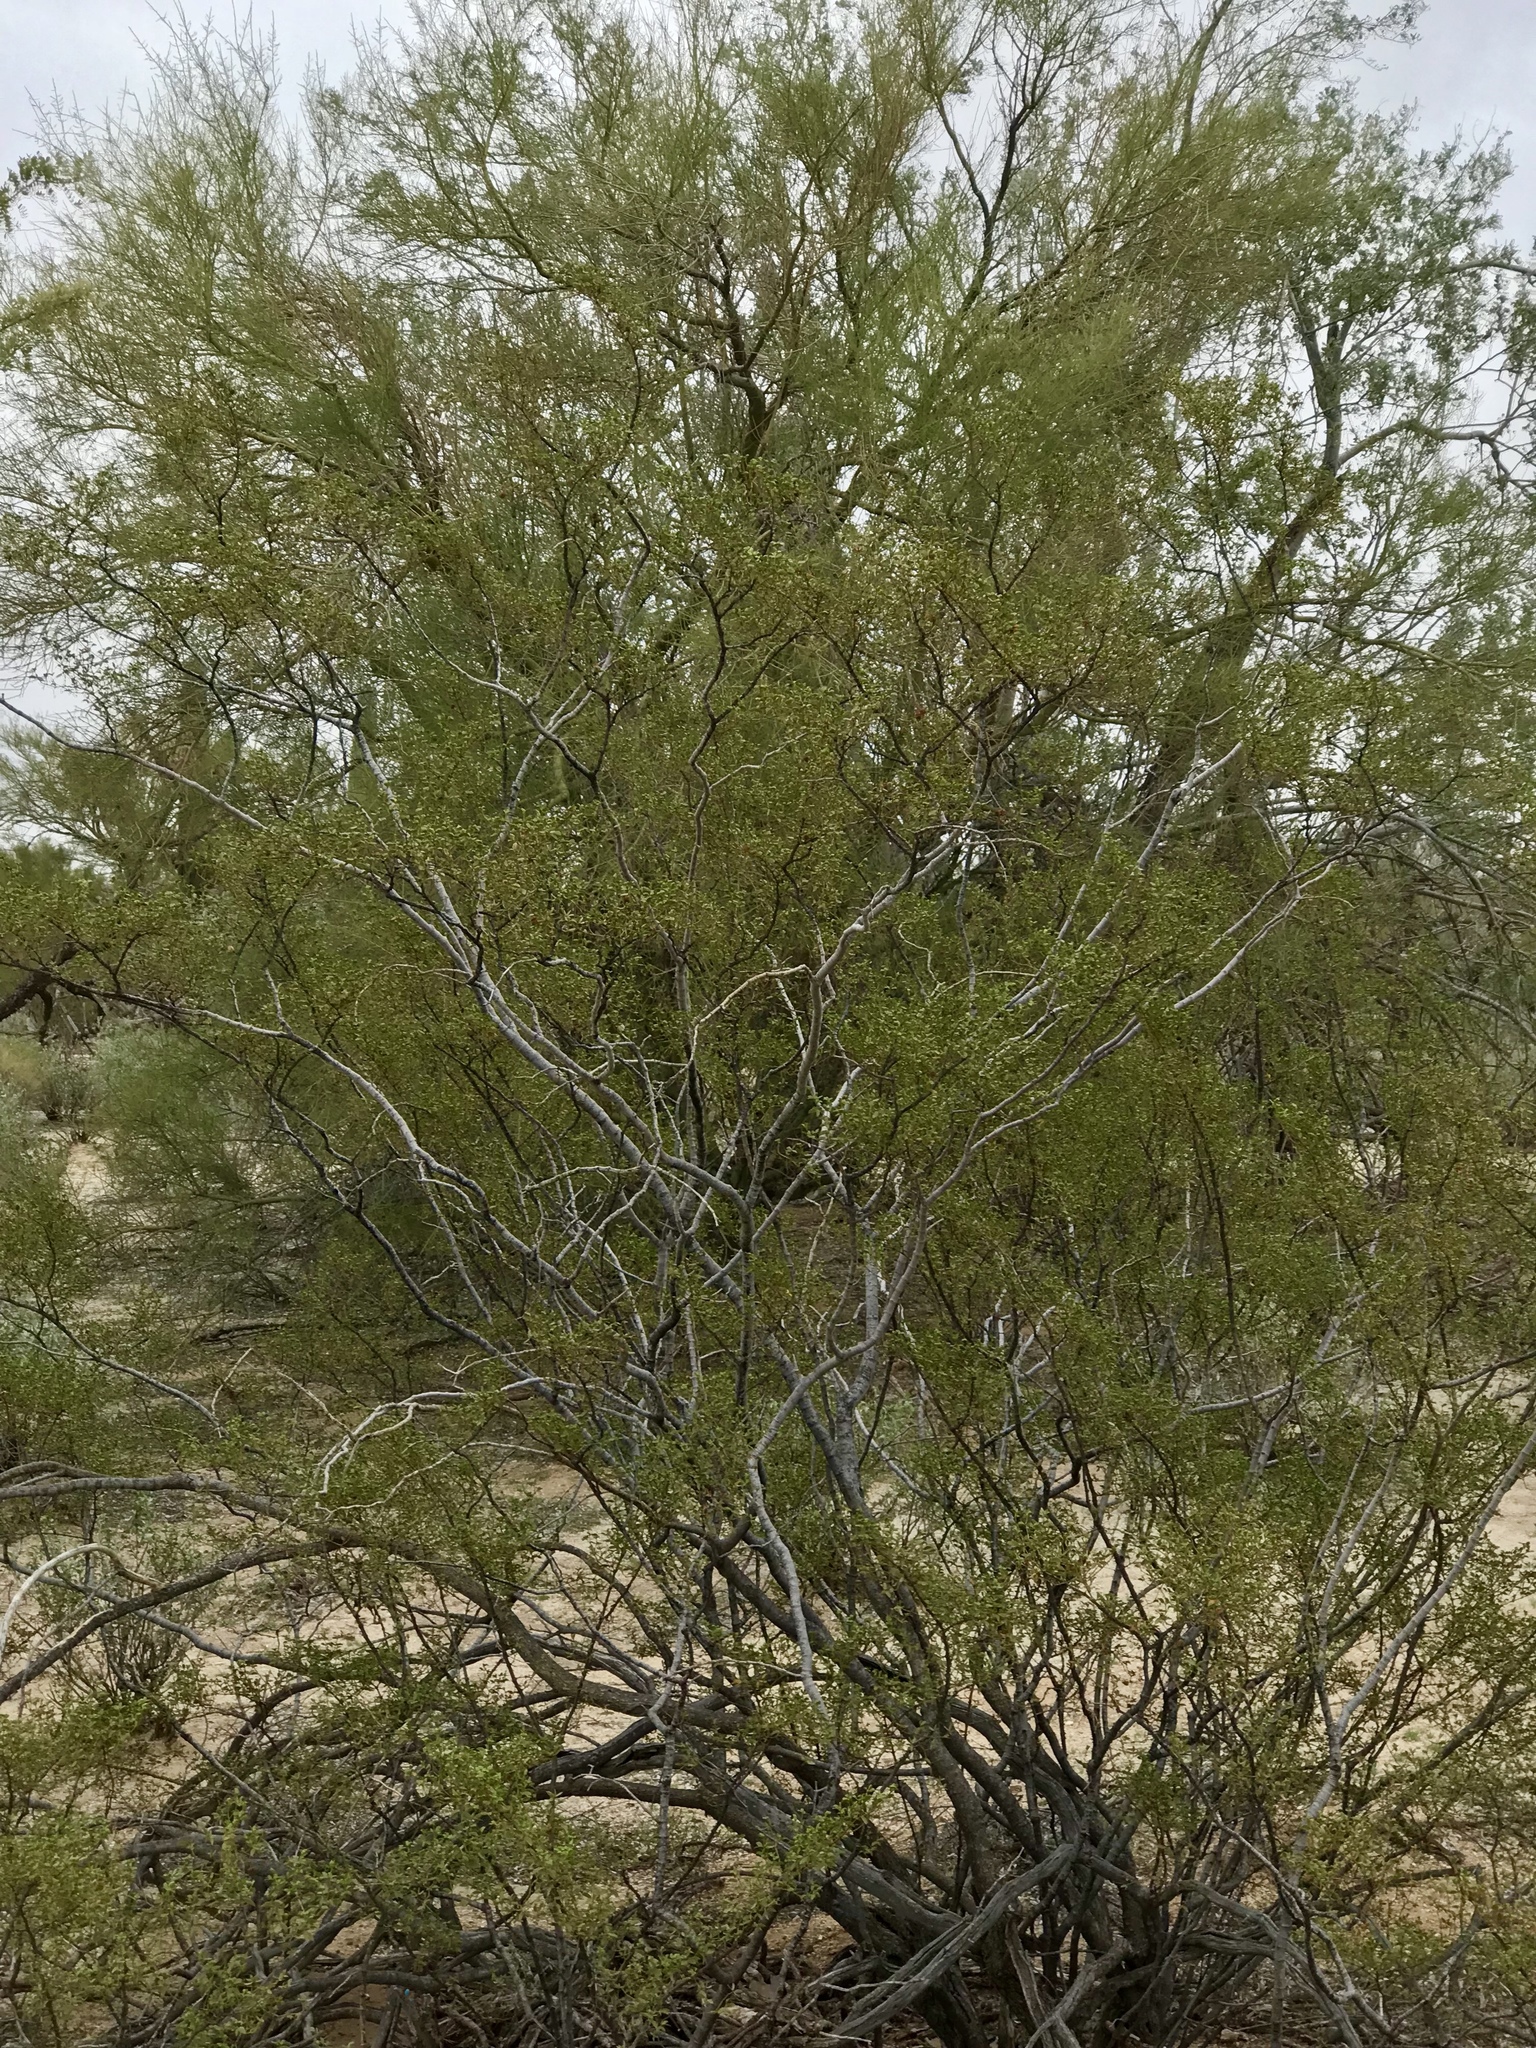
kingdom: Plantae
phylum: Tracheophyta
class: Magnoliopsida
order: Zygophyllales
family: Zygophyllaceae
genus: Larrea
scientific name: Larrea tridentata
